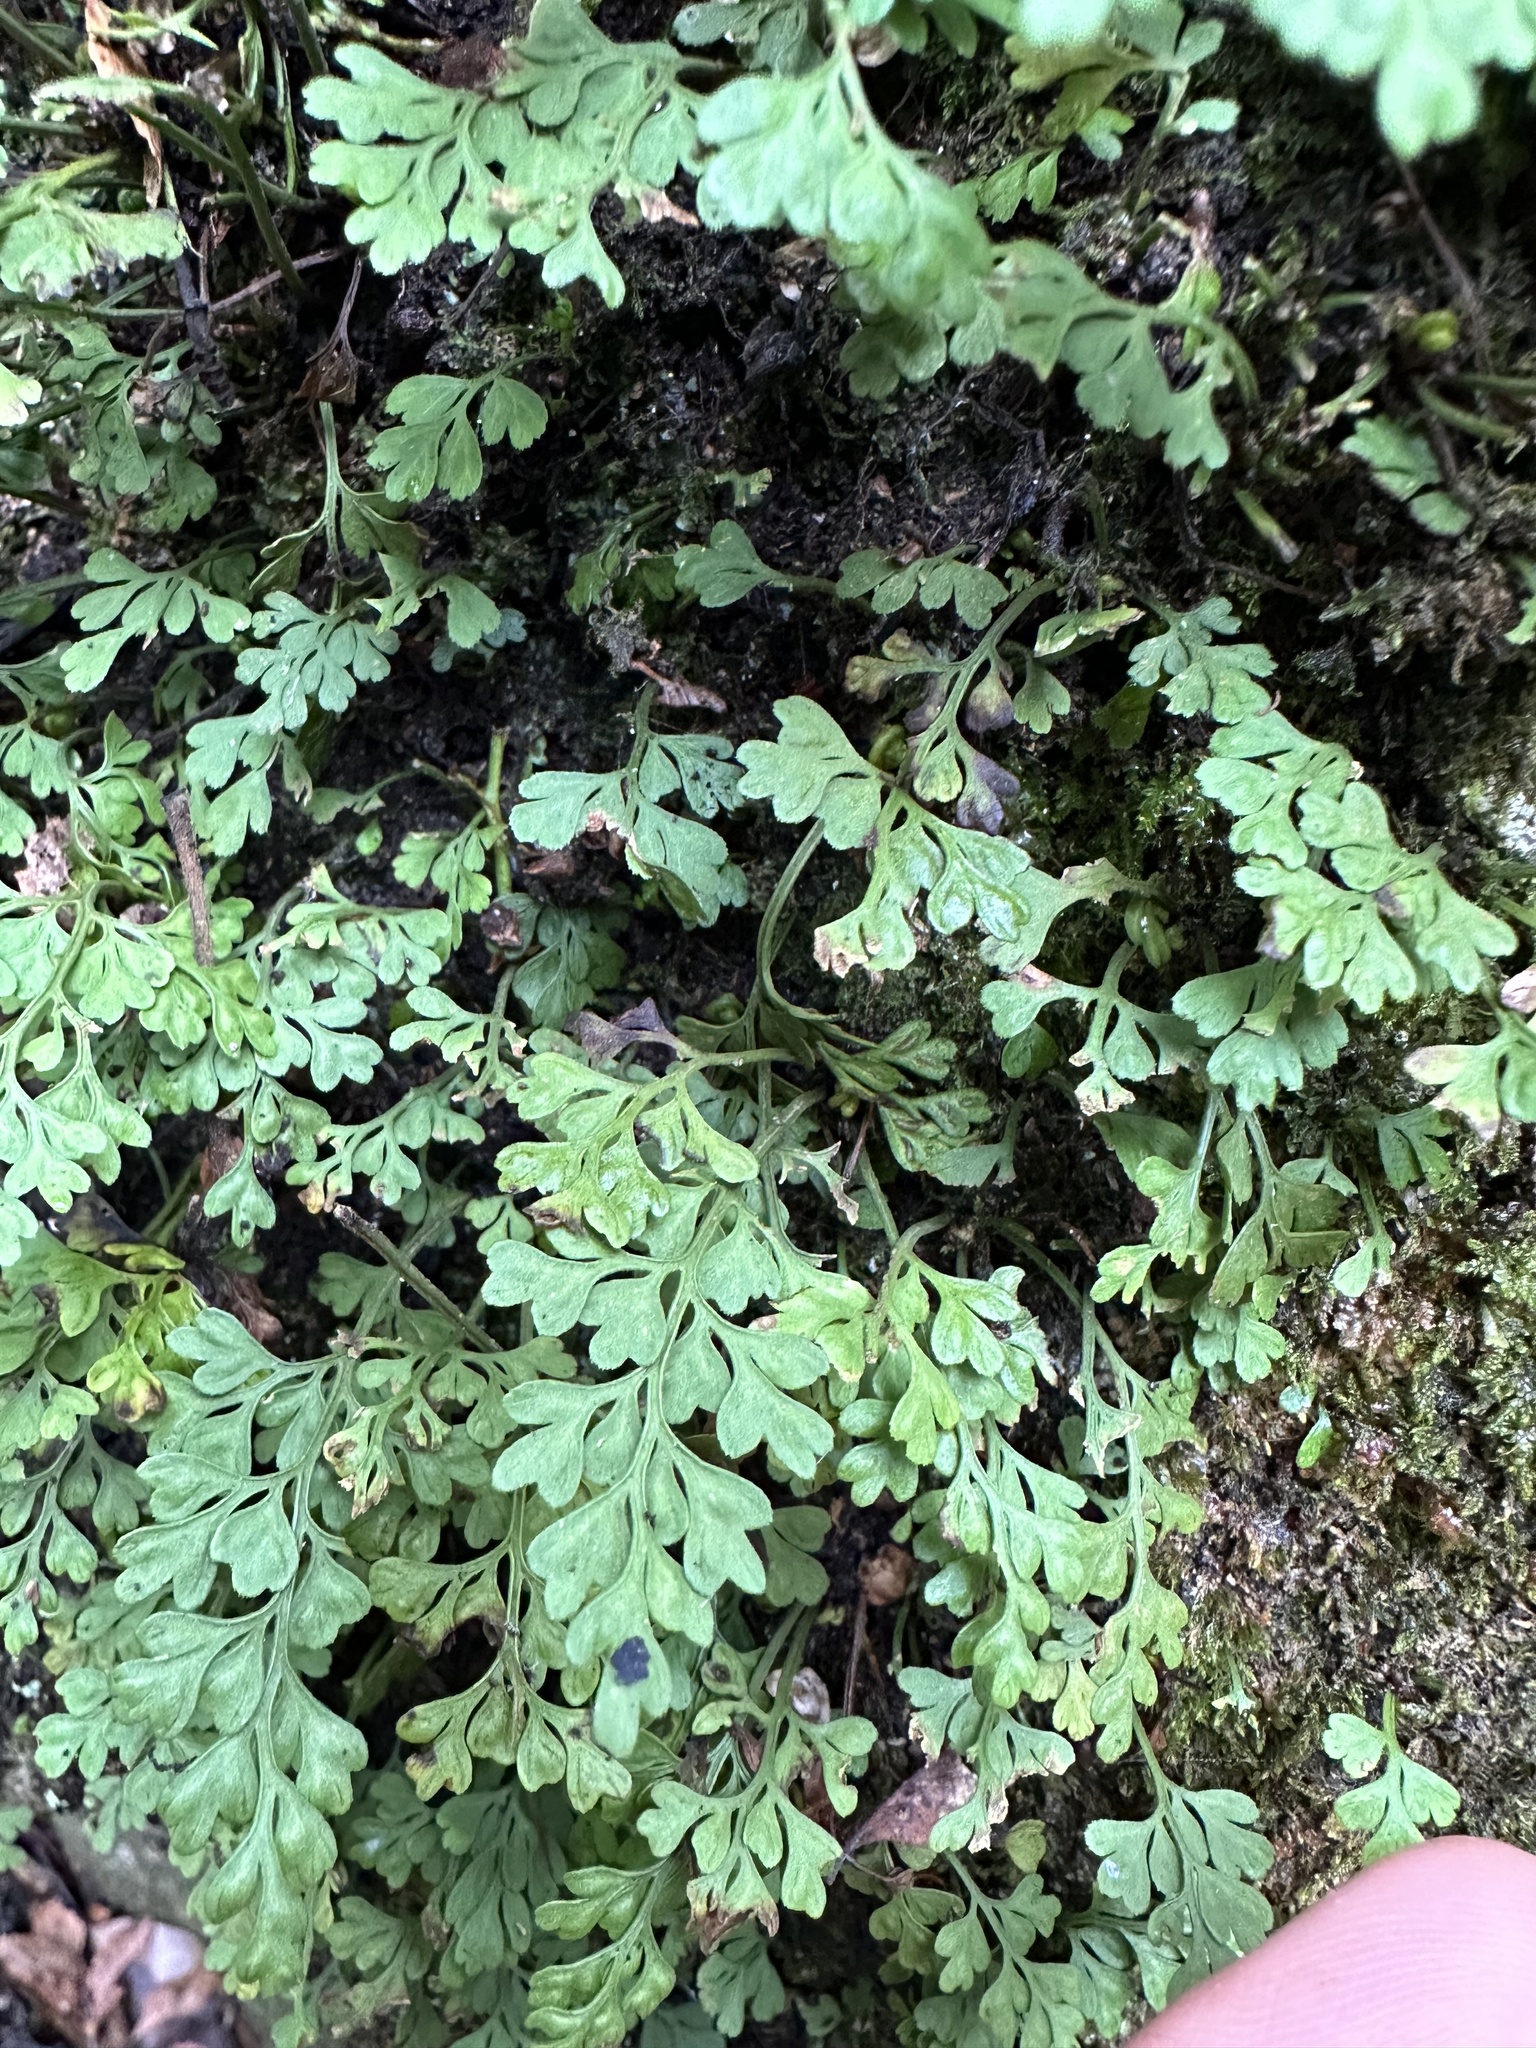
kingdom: Plantae
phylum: Tracheophyta
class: Polypodiopsida
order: Polypodiales
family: Aspleniaceae
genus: Asplenium
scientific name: Asplenium dareoides
